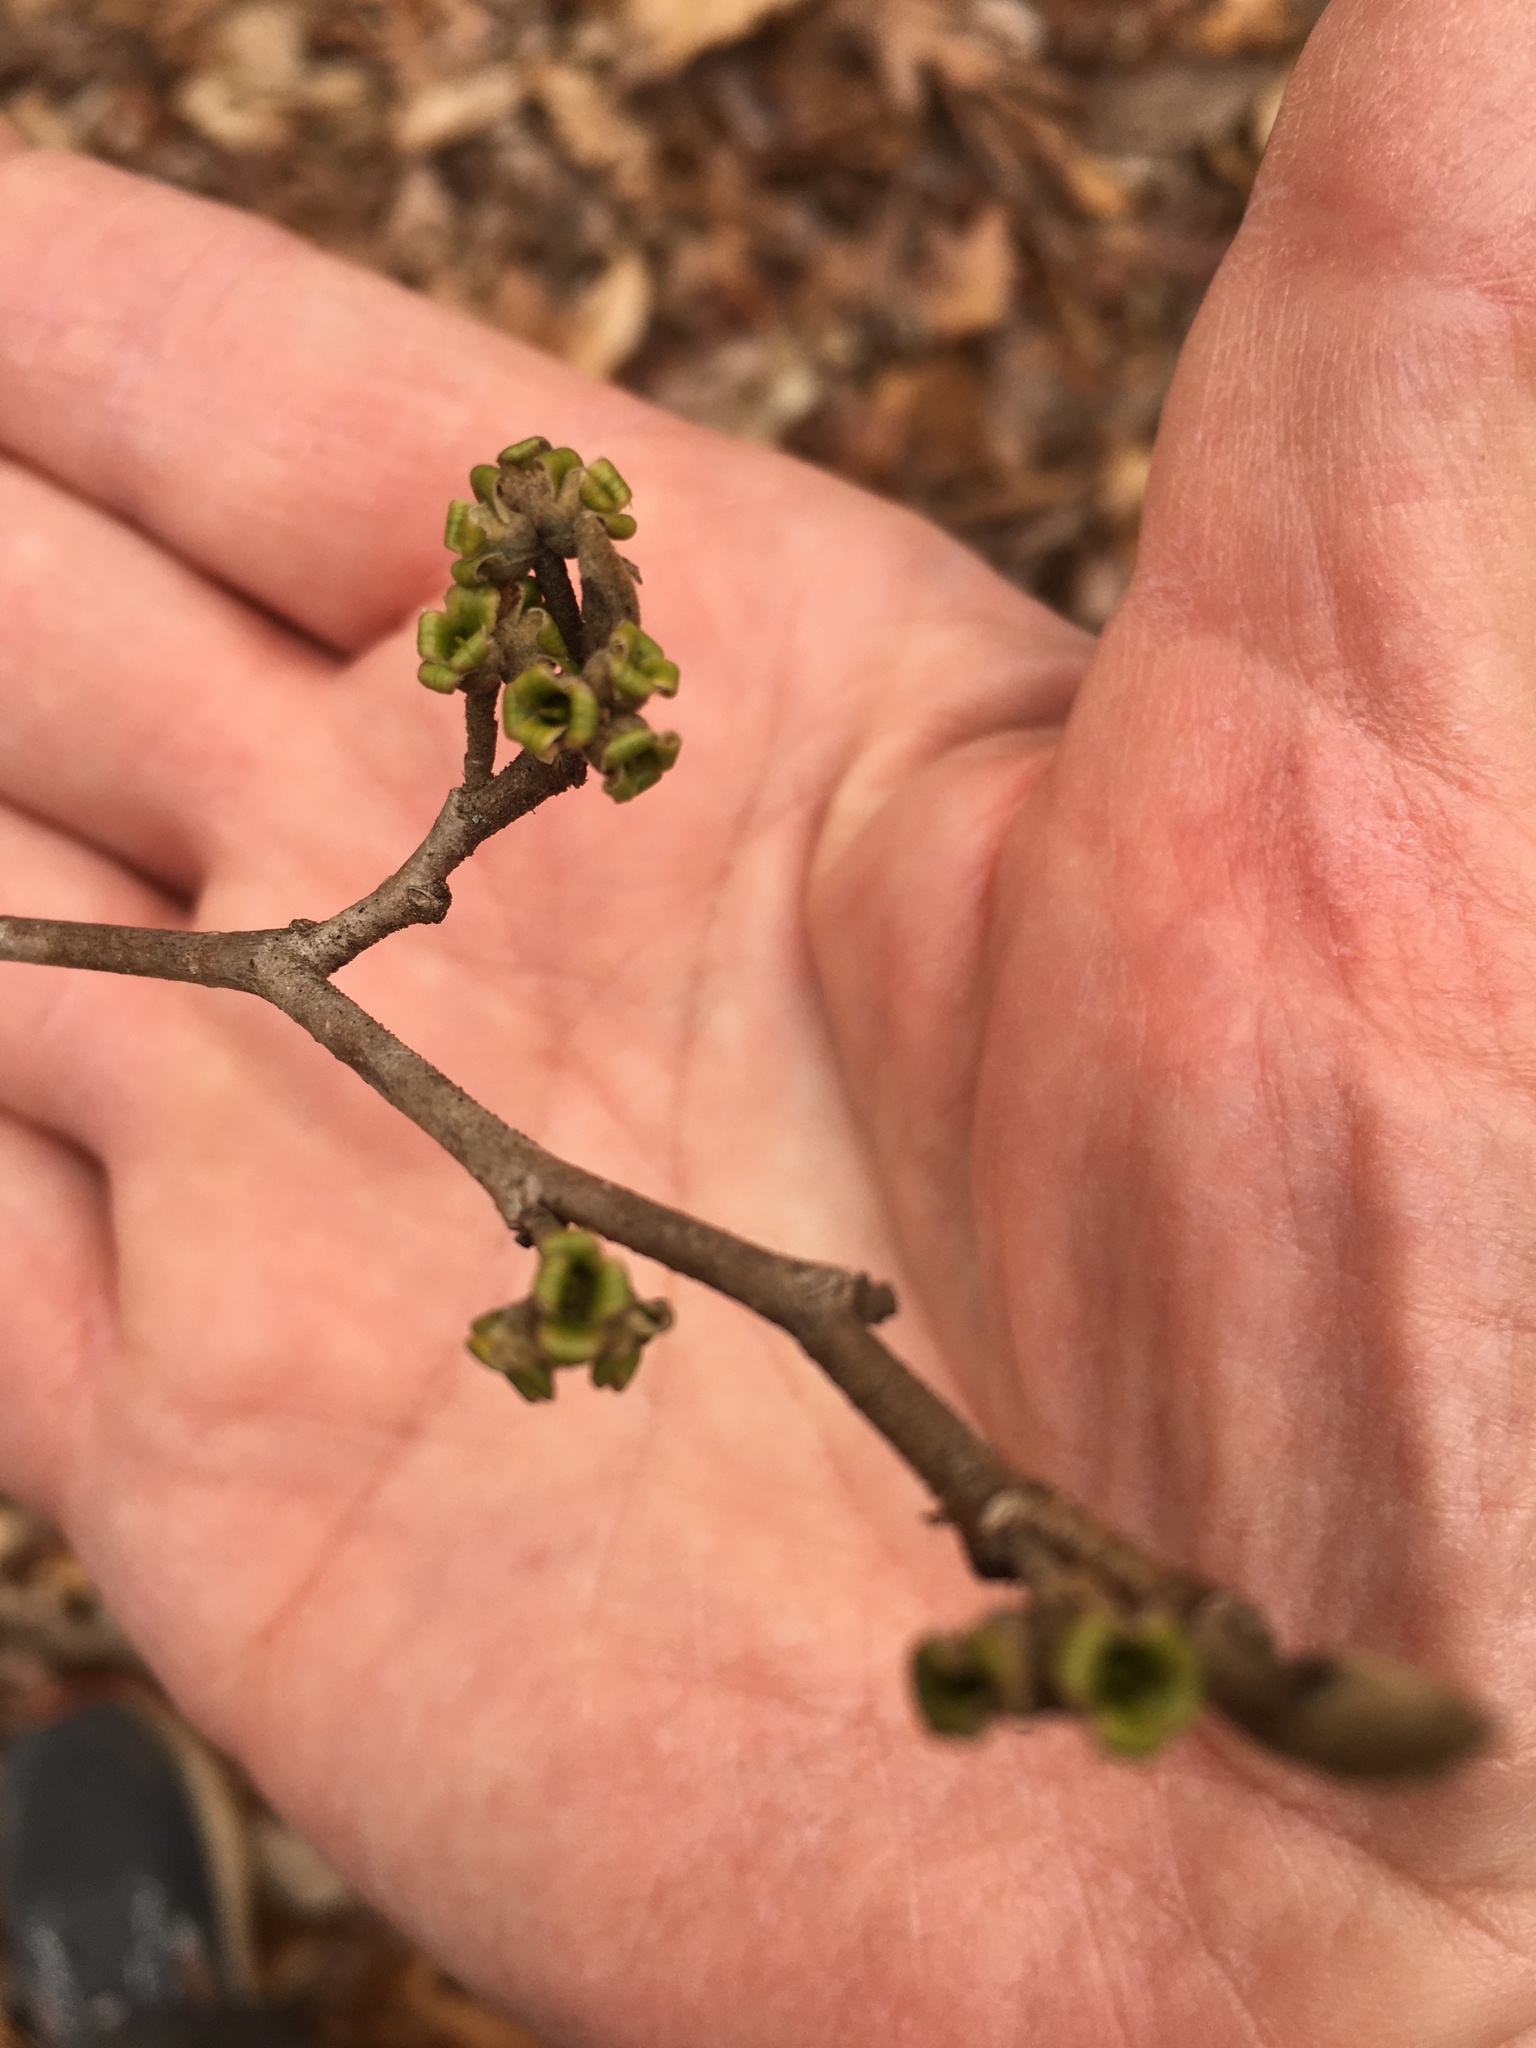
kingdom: Plantae
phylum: Tracheophyta
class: Magnoliopsida
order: Saxifragales
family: Hamamelidaceae
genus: Hamamelis
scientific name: Hamamelis virginiana
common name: Witch-hazel
